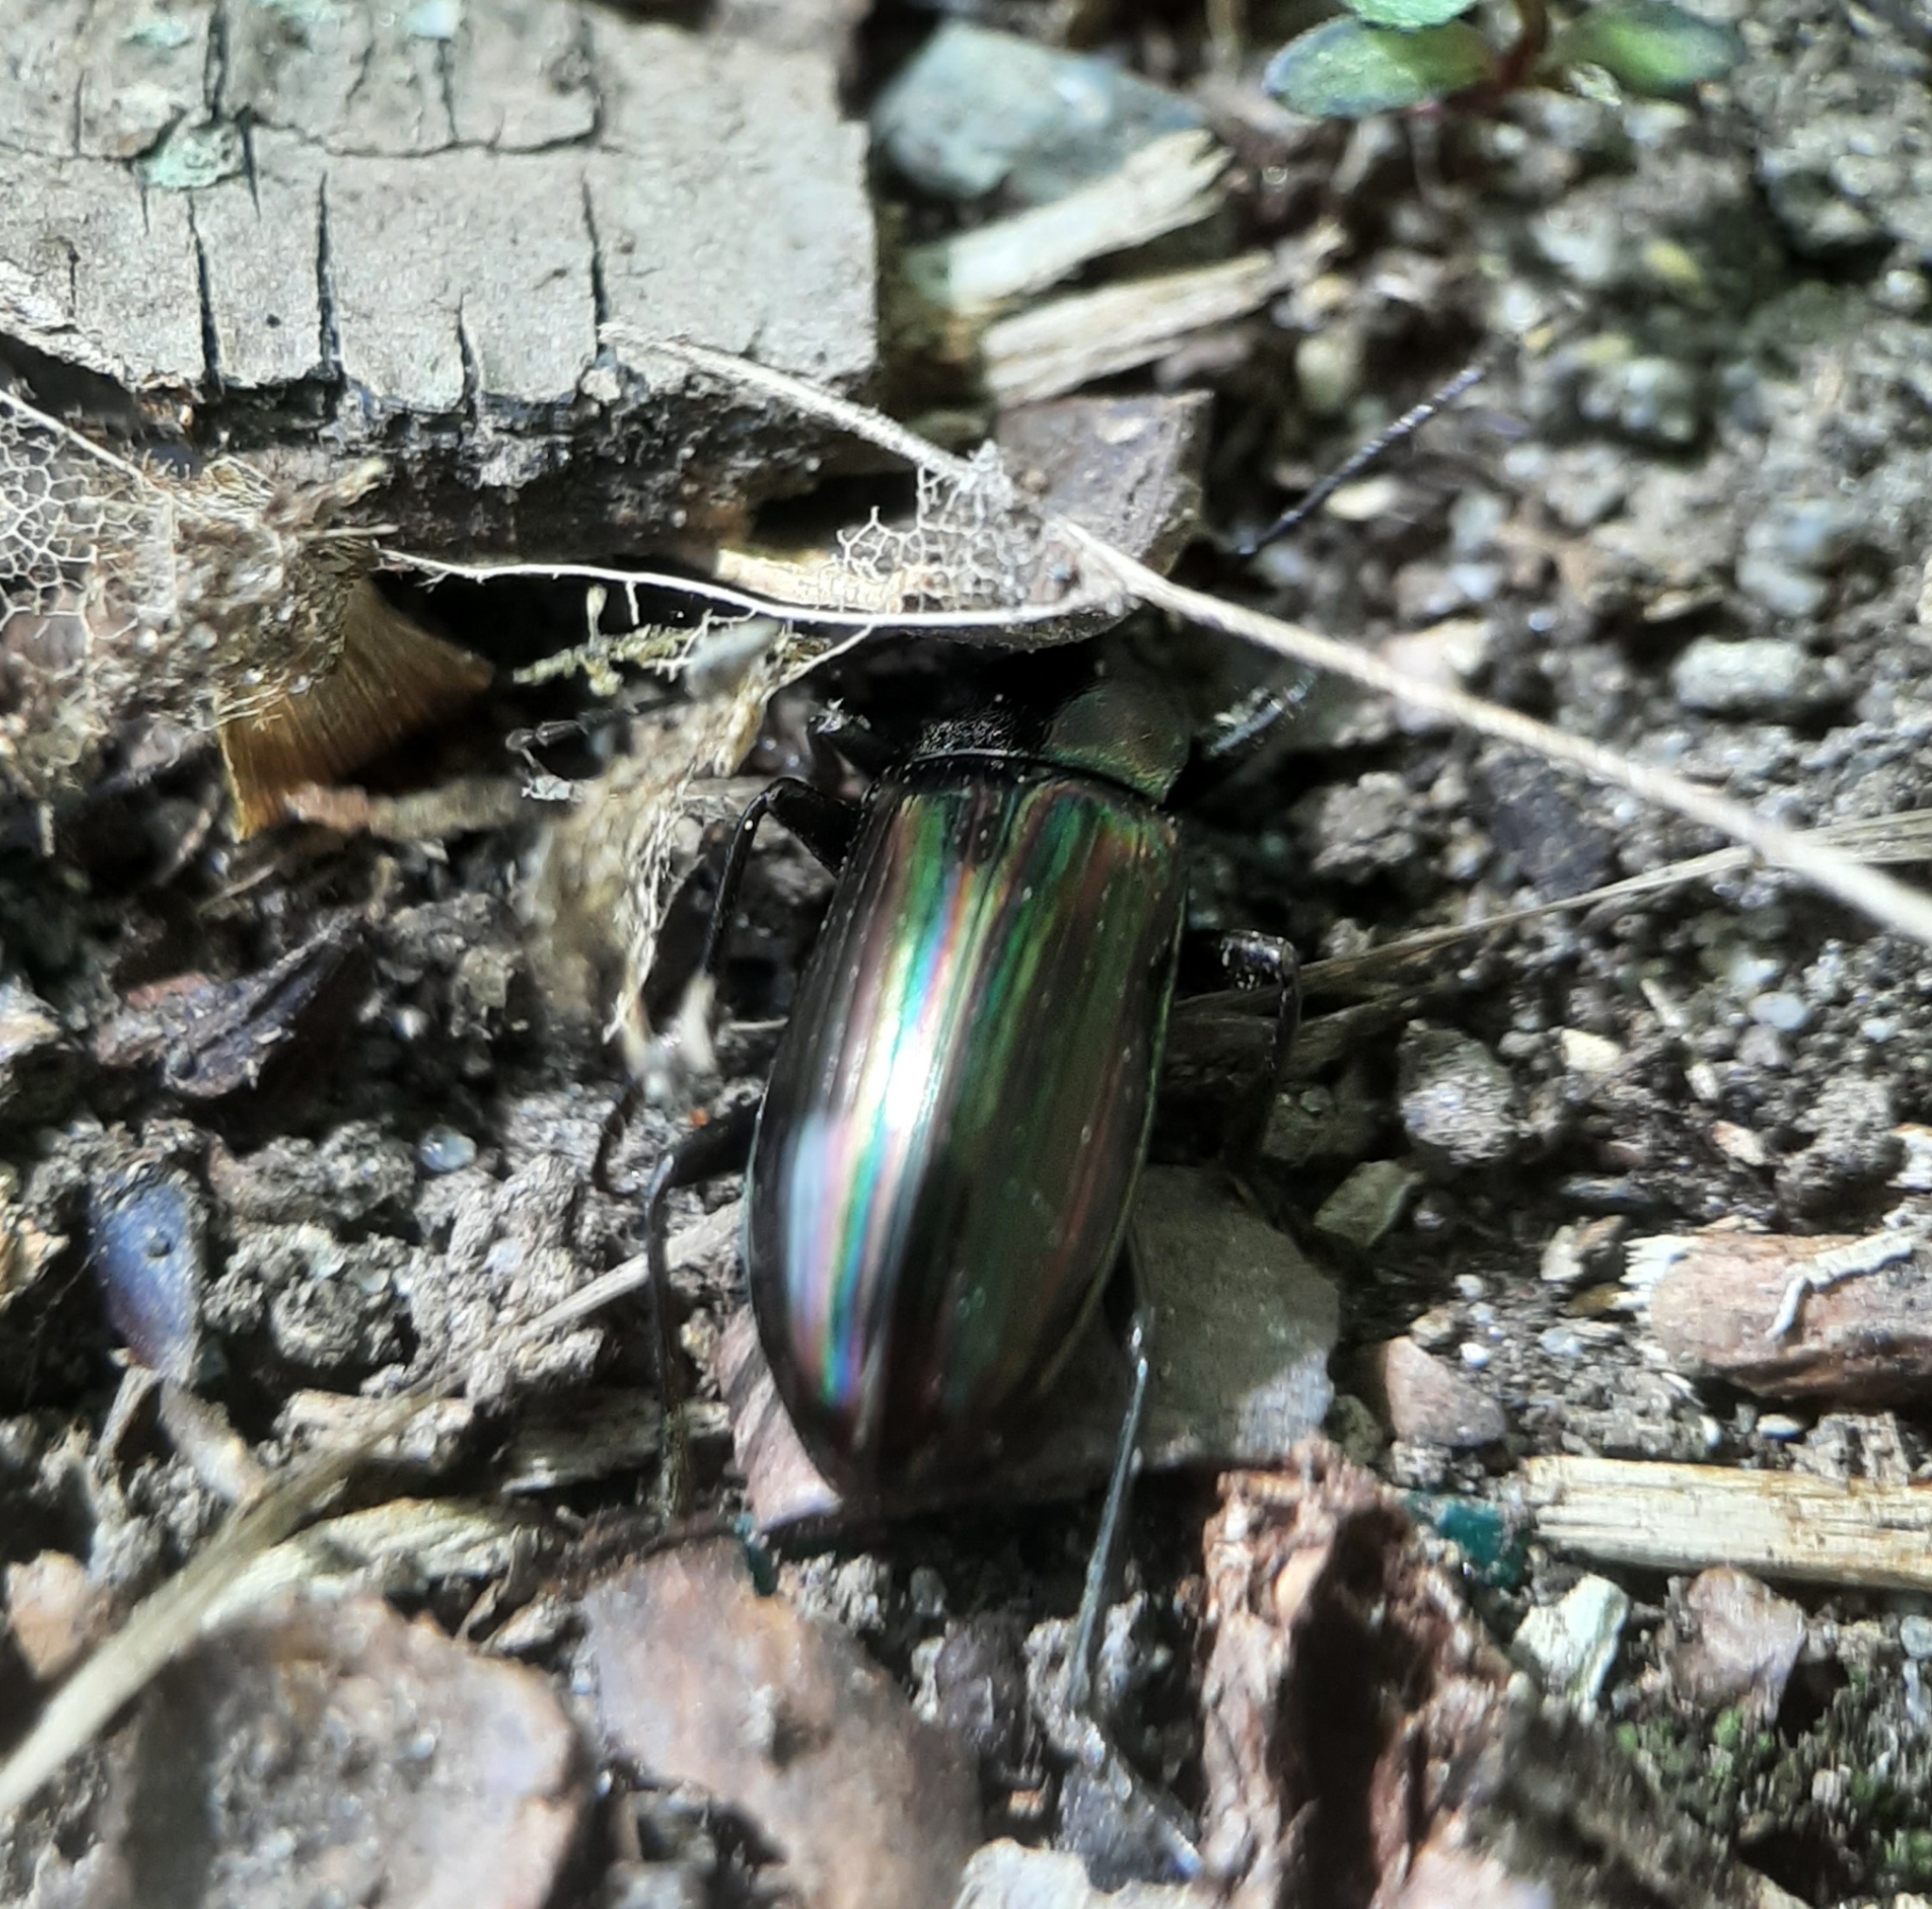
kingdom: Animalia
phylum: Arthropoda
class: Insecta
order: Coleoptera
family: Tenebrionidae
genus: Tarpela
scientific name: Tarpela micans
